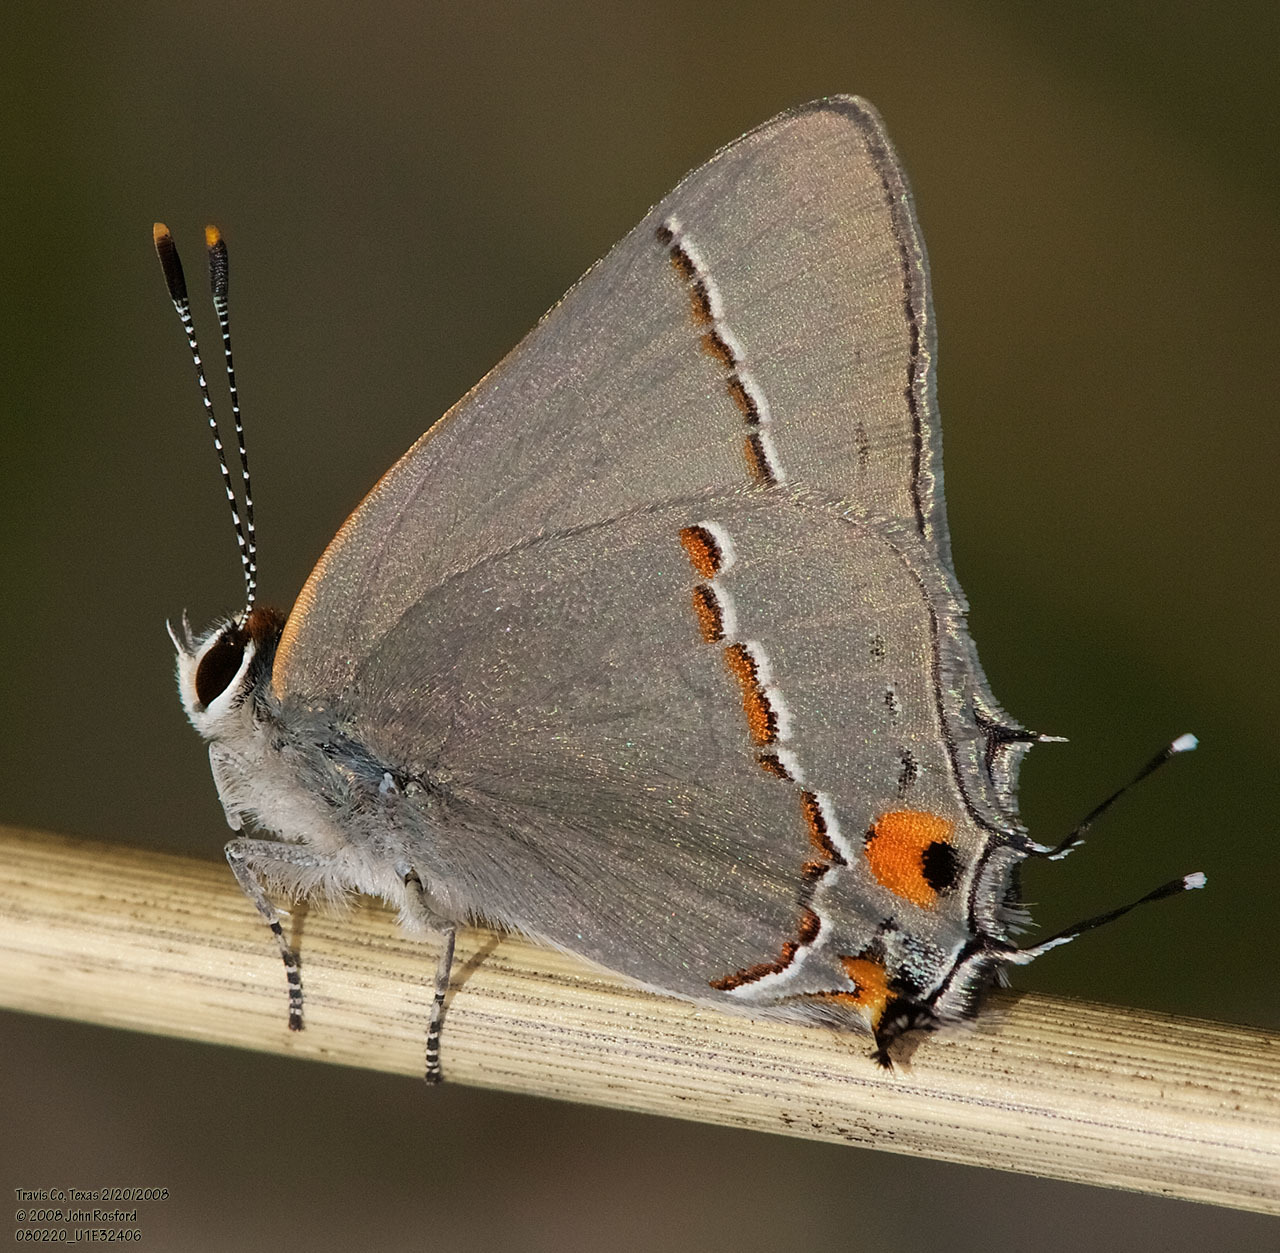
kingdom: Animalia
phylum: Arthropoda
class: Insecta
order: Lepidoptera
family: Lycaenidae
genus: Strymon
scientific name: Strymon melinus
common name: Gray hairstreak
